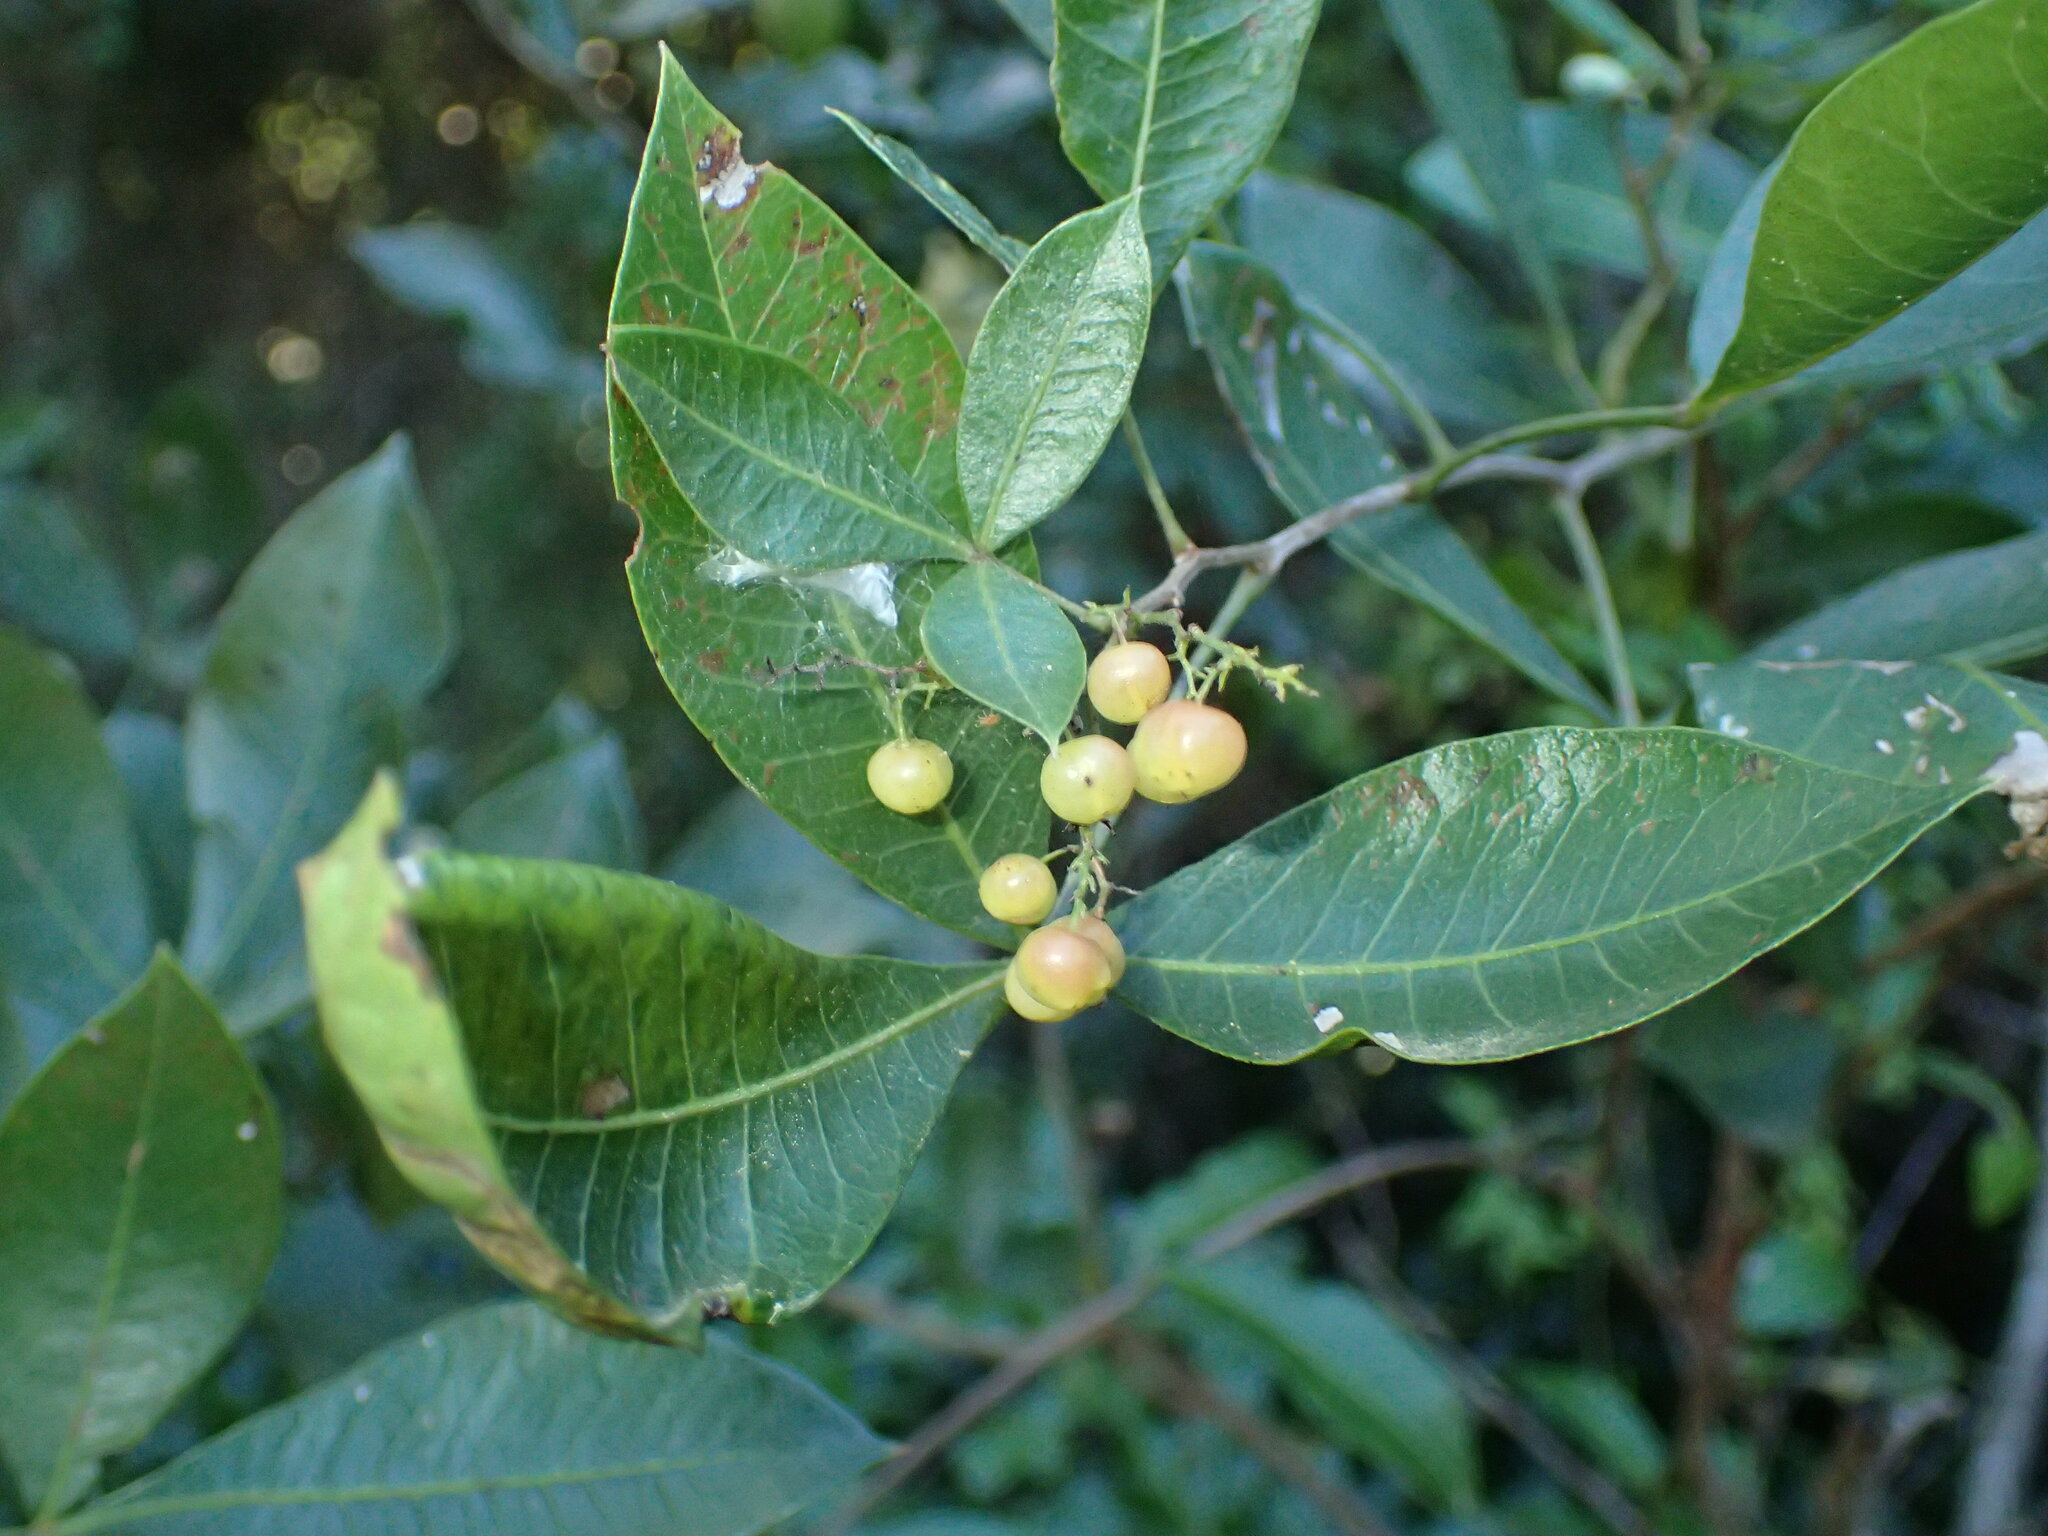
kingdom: Plantae
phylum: Tracheophyta
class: Magnoliopsida
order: Sapindales
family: Anacardiaceae
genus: Searsia
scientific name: Searsia nebulosa
